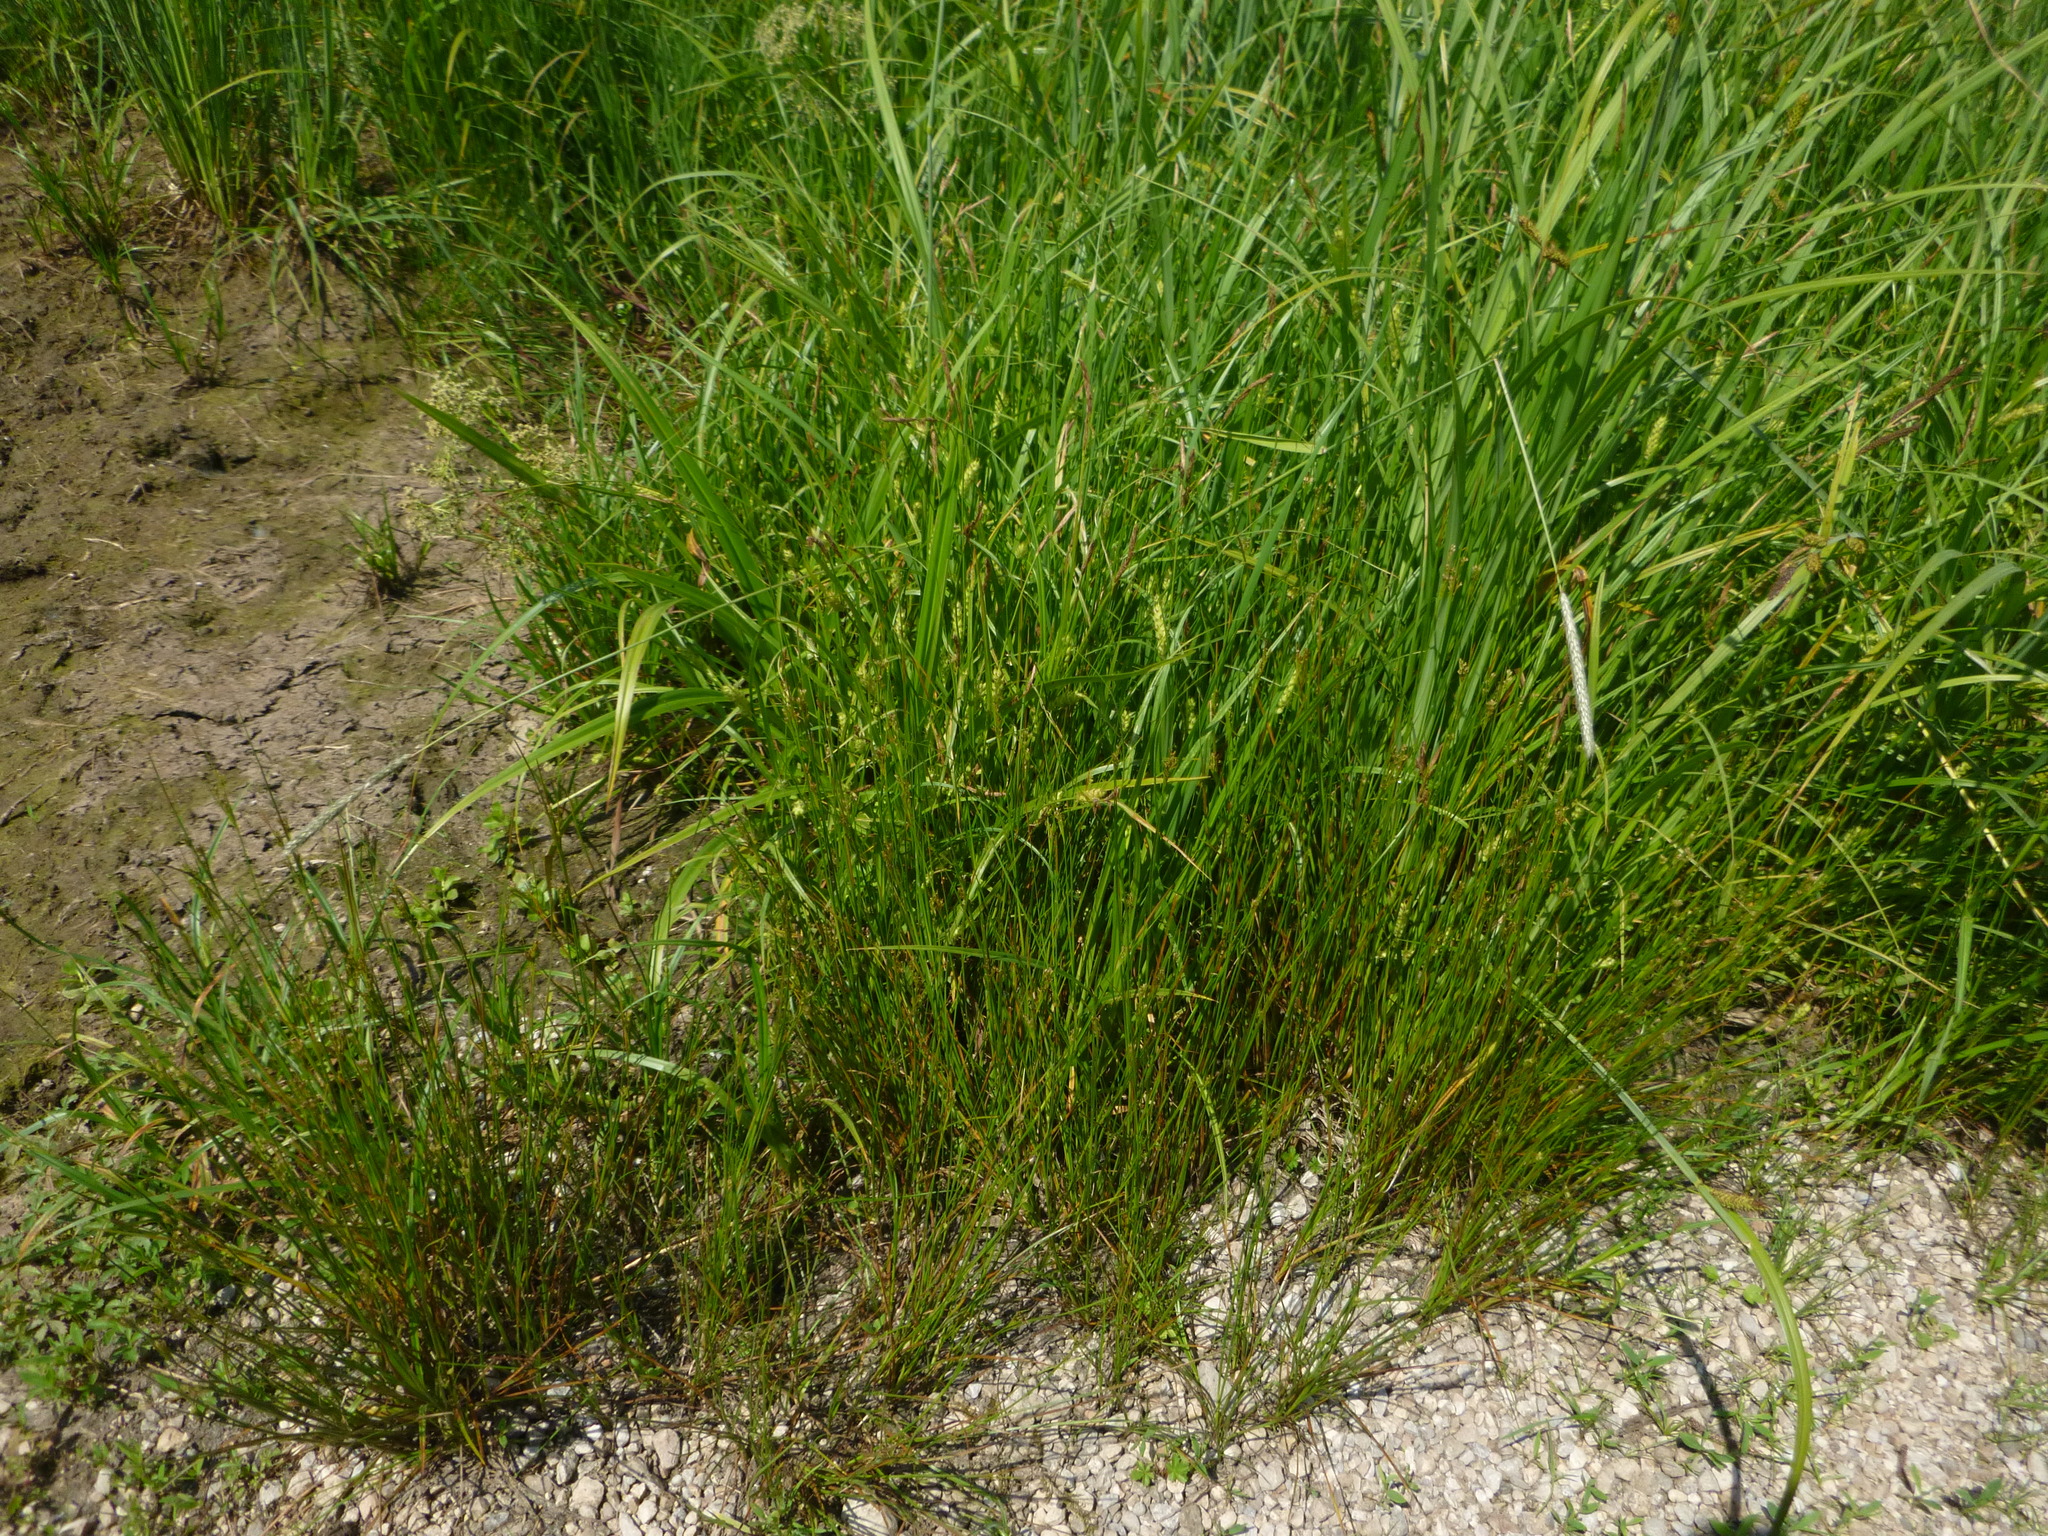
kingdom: Plantae
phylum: Tracheophyta
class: Liliopsida
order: Poales
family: Juncaceae
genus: Juncus
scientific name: Juncus compressus
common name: Round-fruited rush
